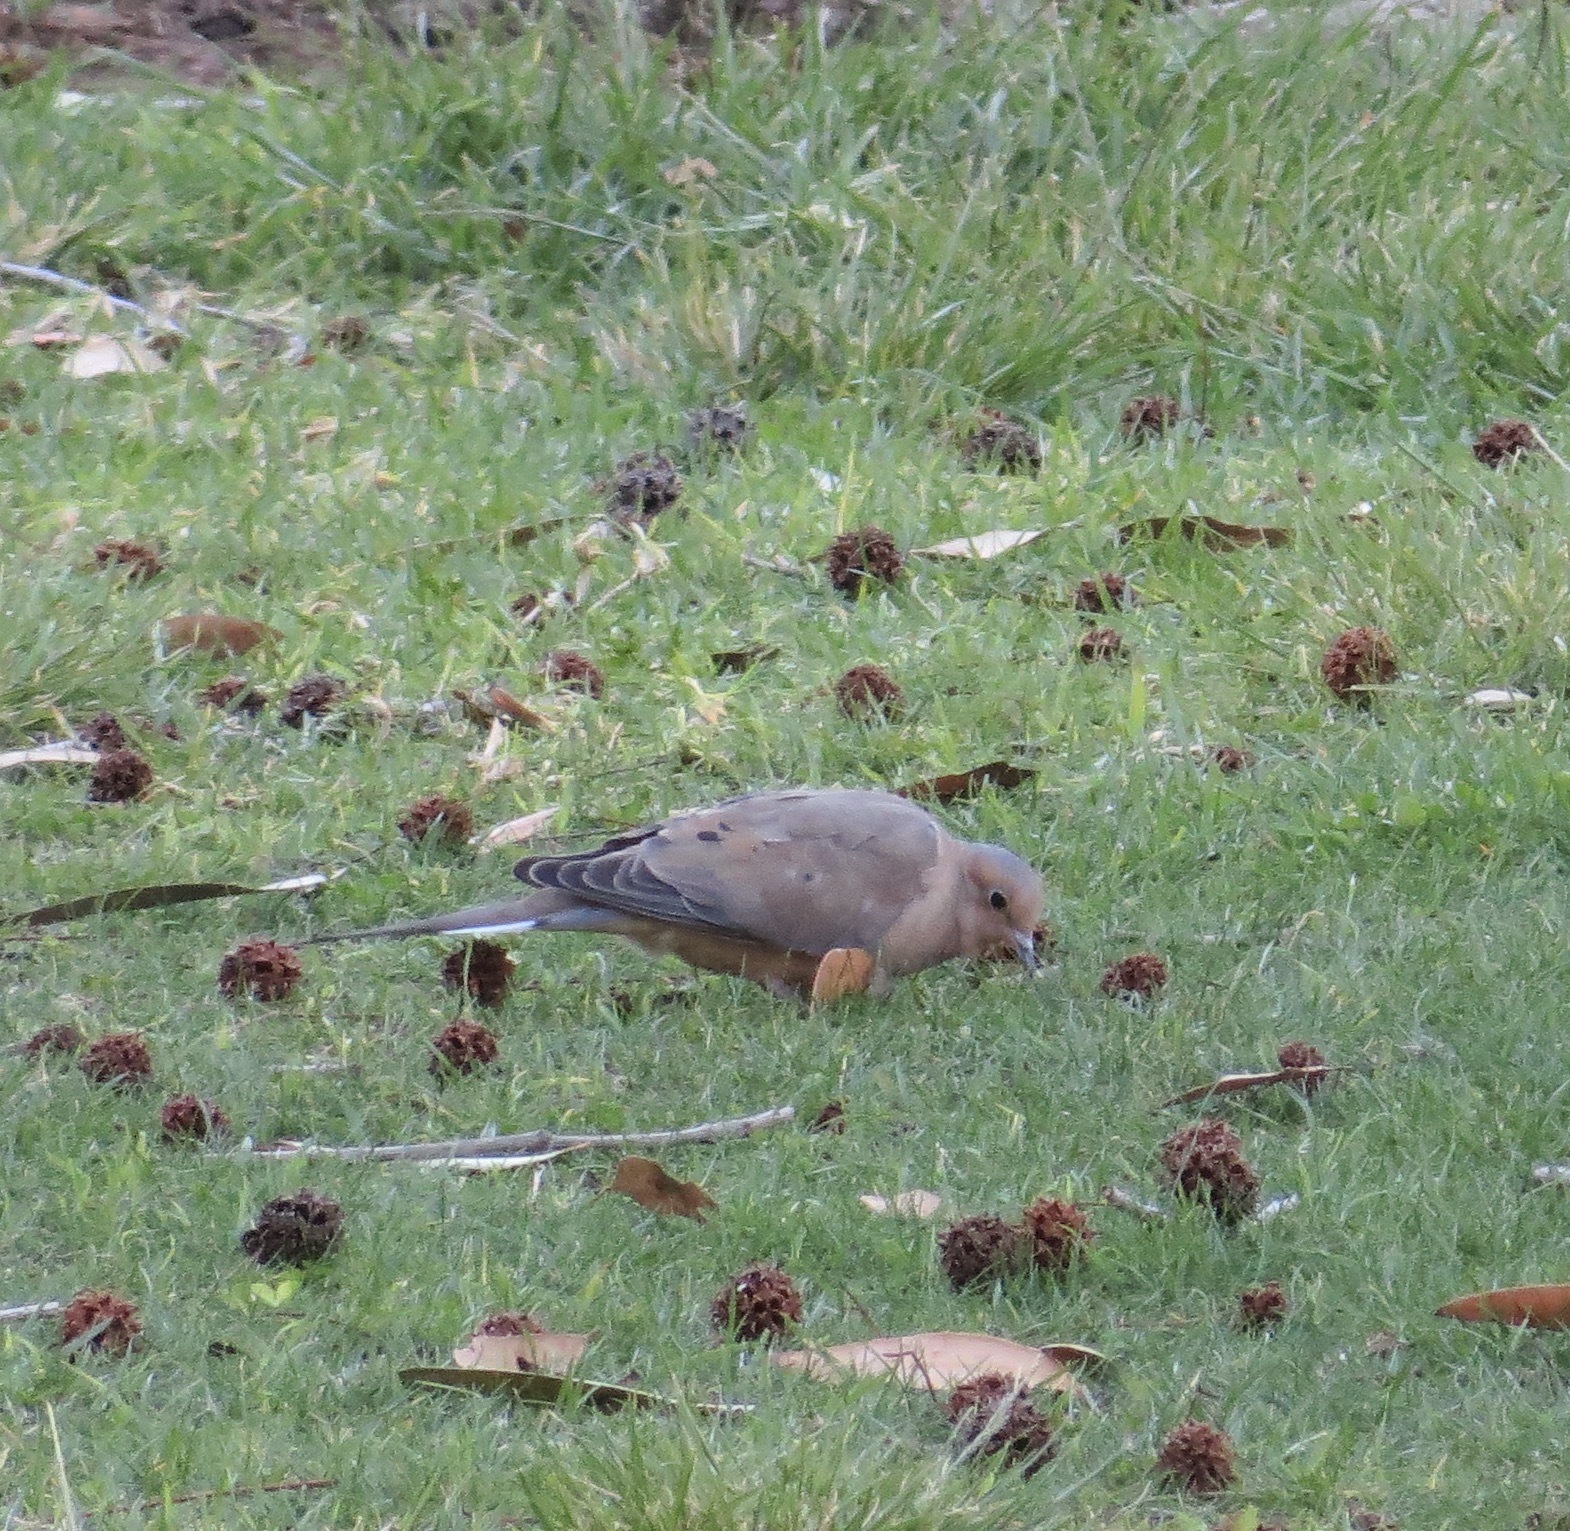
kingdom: Animalia
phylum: Chordata
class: Aves
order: Columbiformes
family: Columbidae
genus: Zenaida
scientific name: Zenaida macroura
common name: Mourning dove
